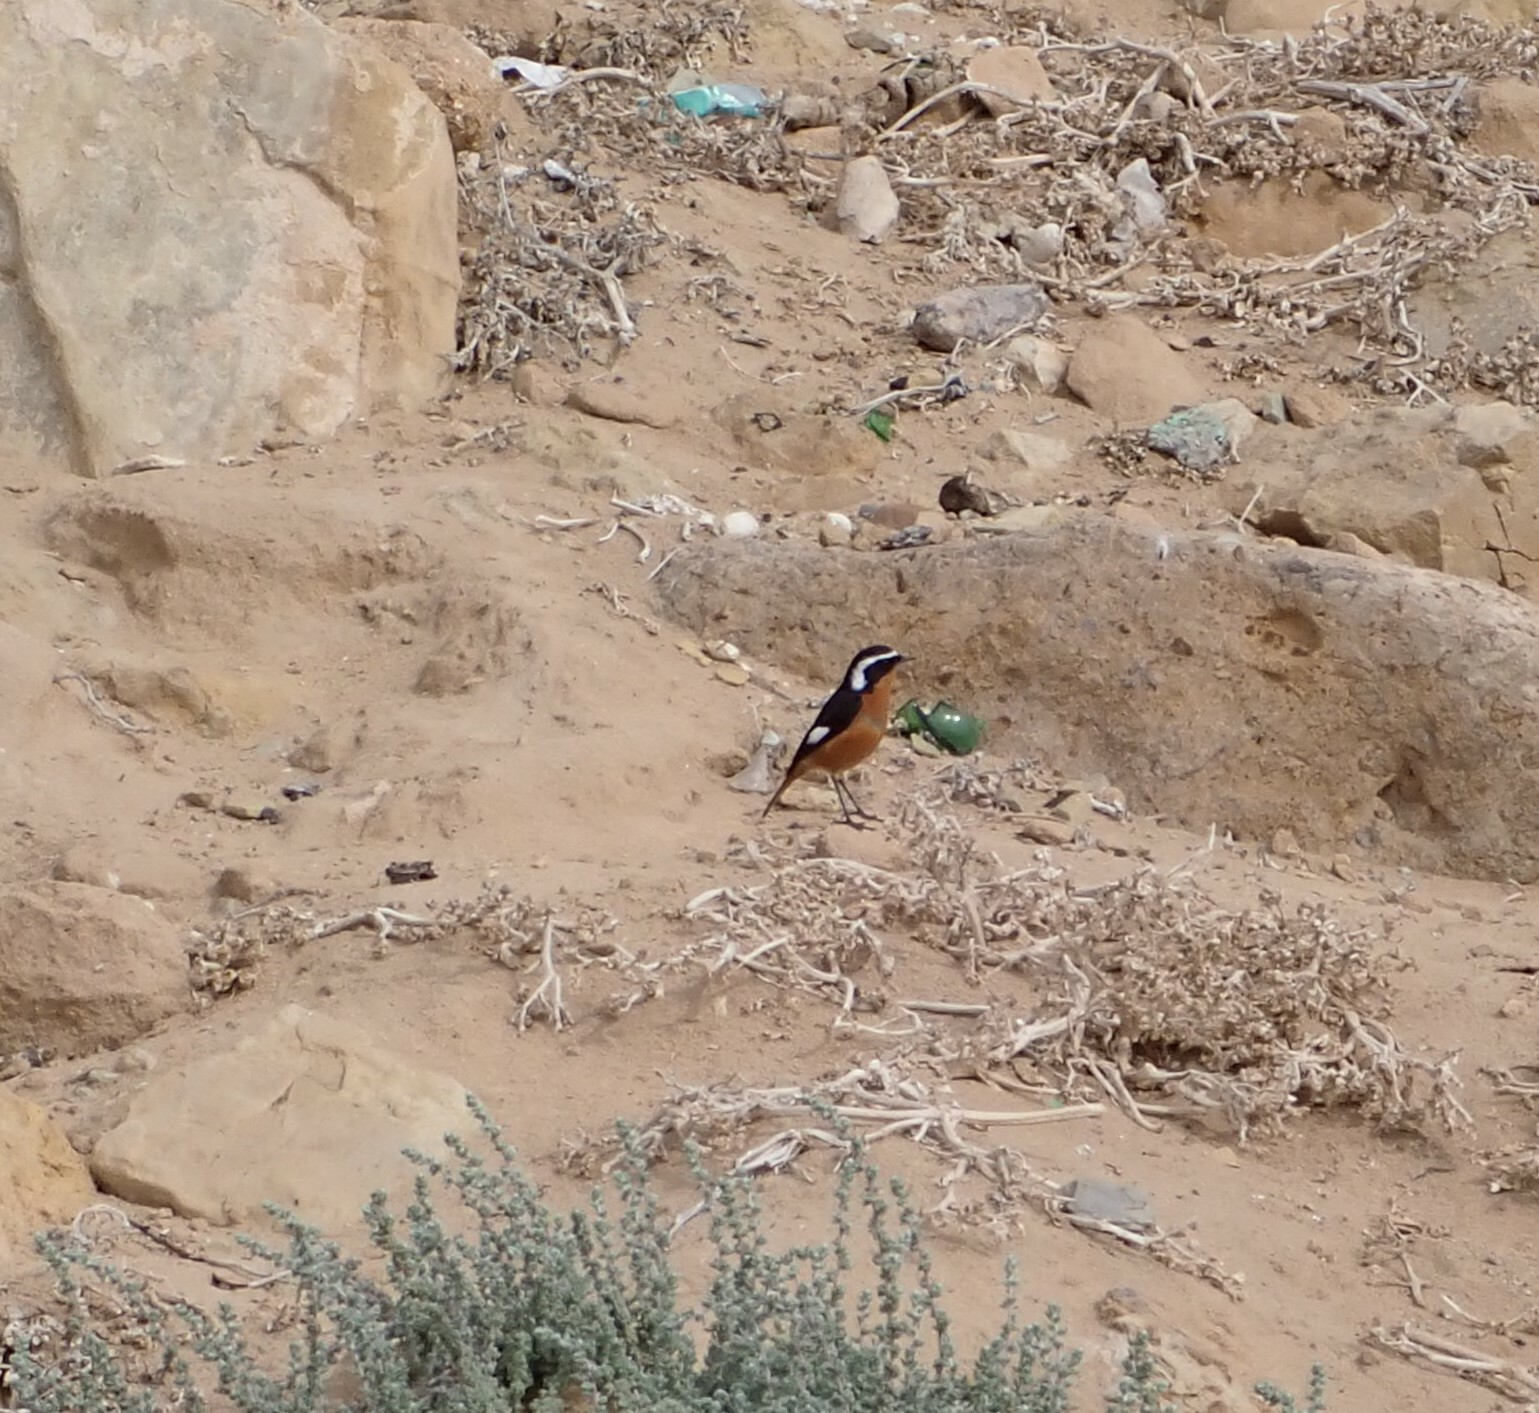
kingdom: Animalia
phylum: Chordata
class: Aves
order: Passeriformes
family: Muscicapidae
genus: Phoenicurus
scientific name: Phoenicurus moussieri
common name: Moussier's redstart
